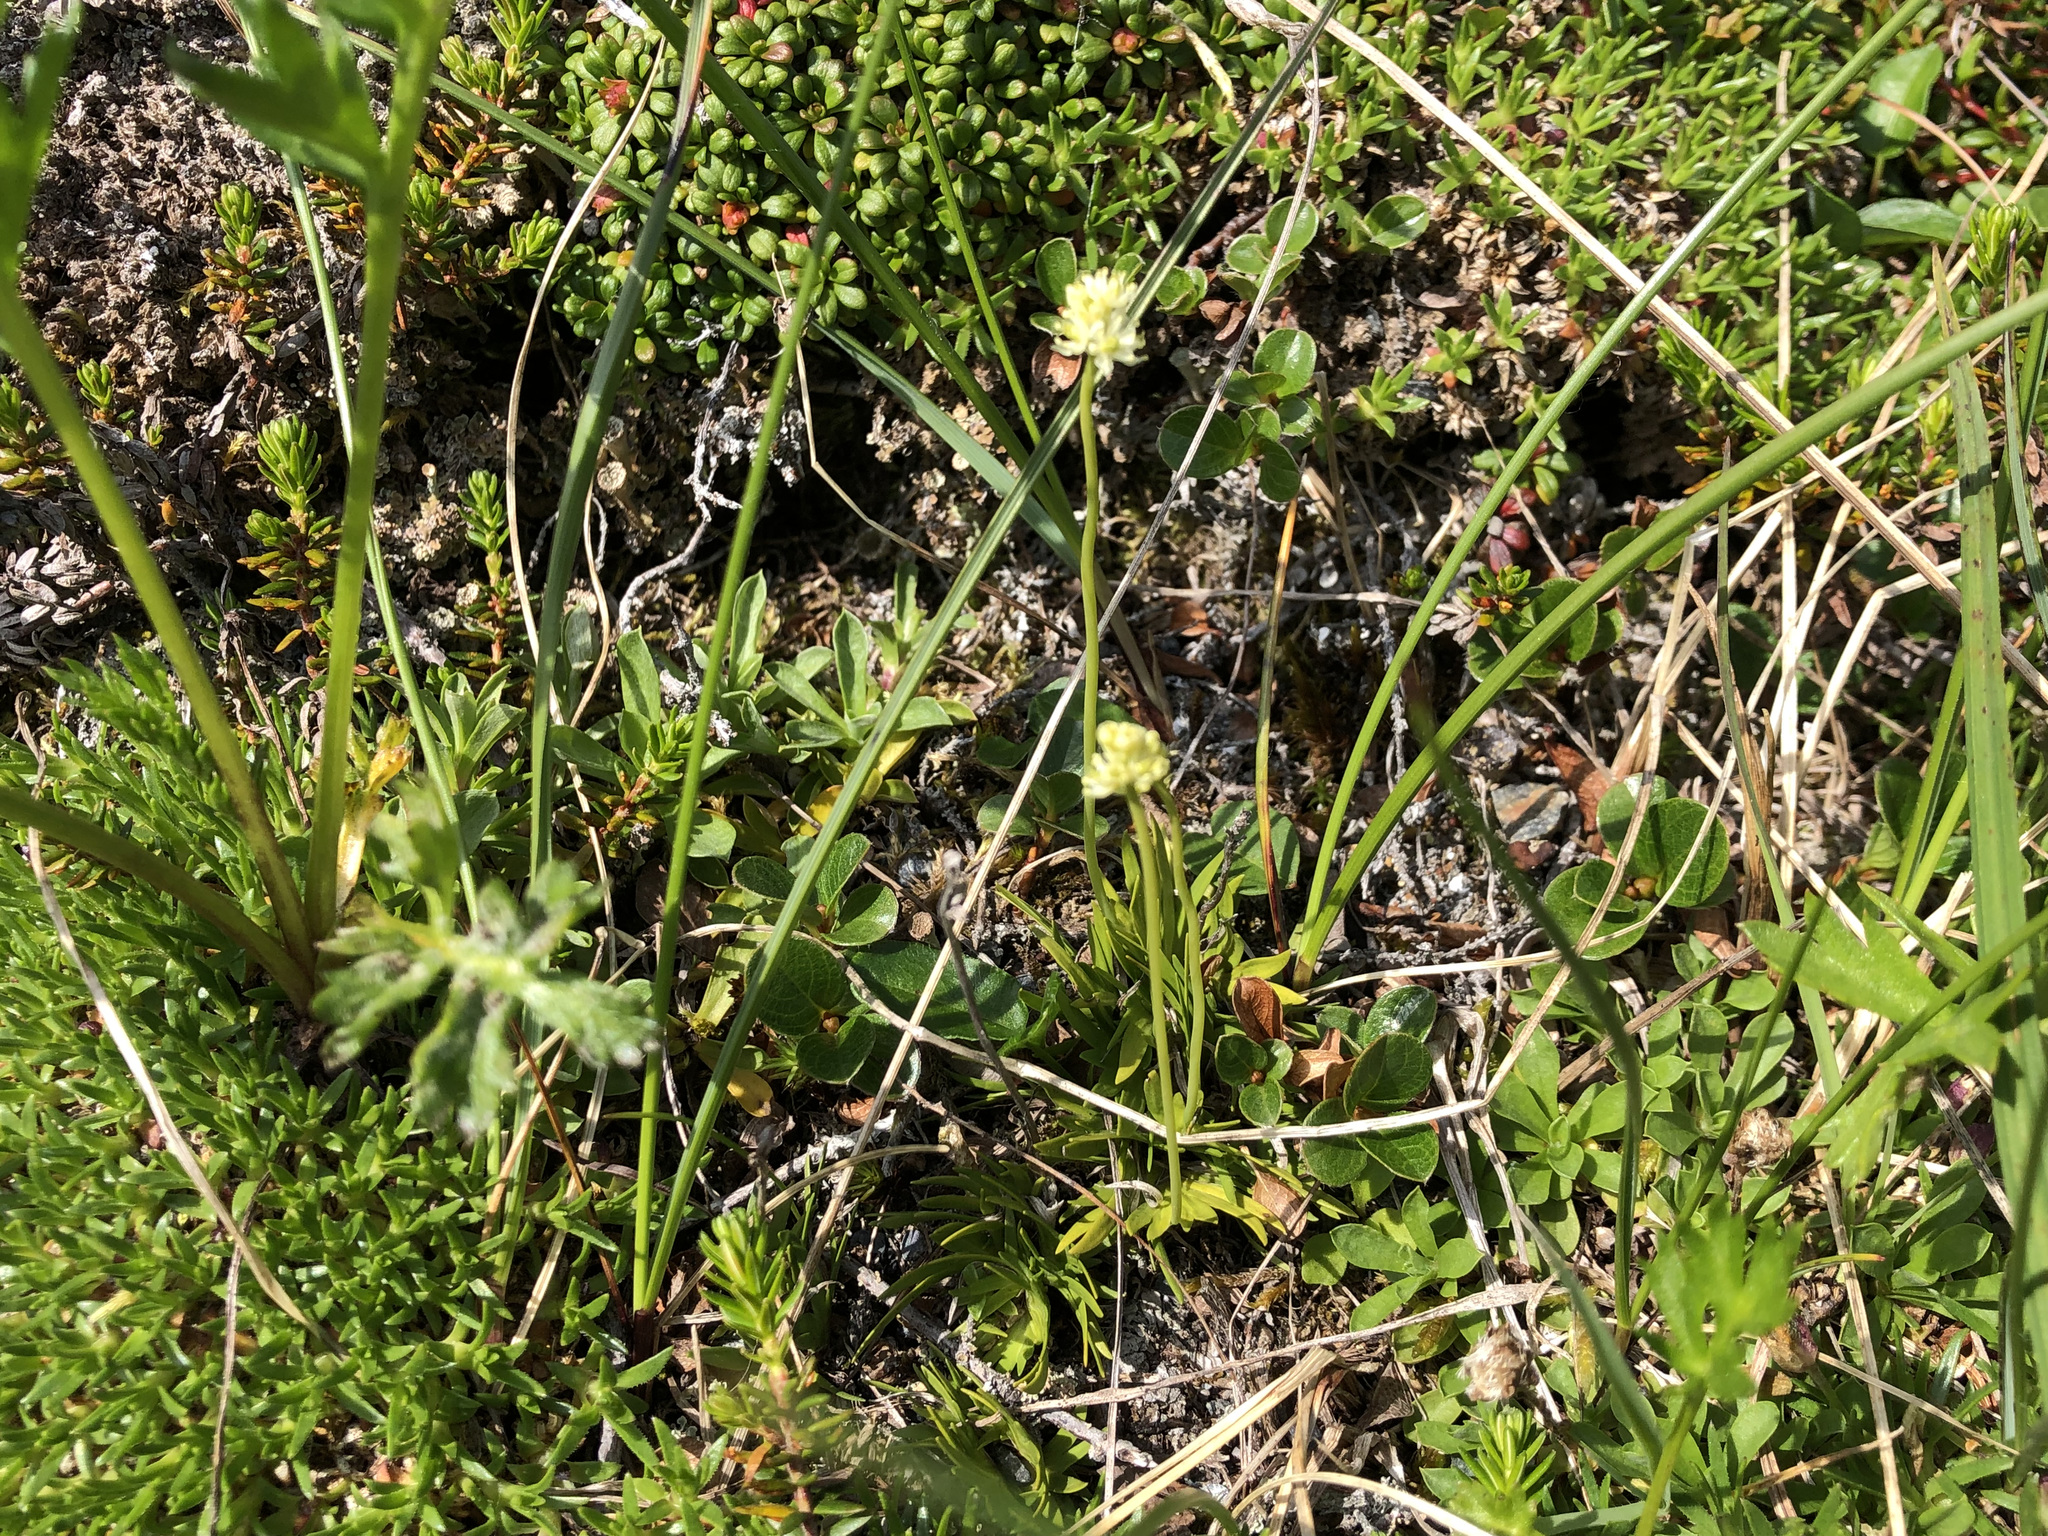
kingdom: Plantae
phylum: Tracheophyta
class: Liliopsida
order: Alismatales
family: Tofieldiaceae
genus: Tofieldia
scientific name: Tofieldia pusilla
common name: Scottish false asphodel
